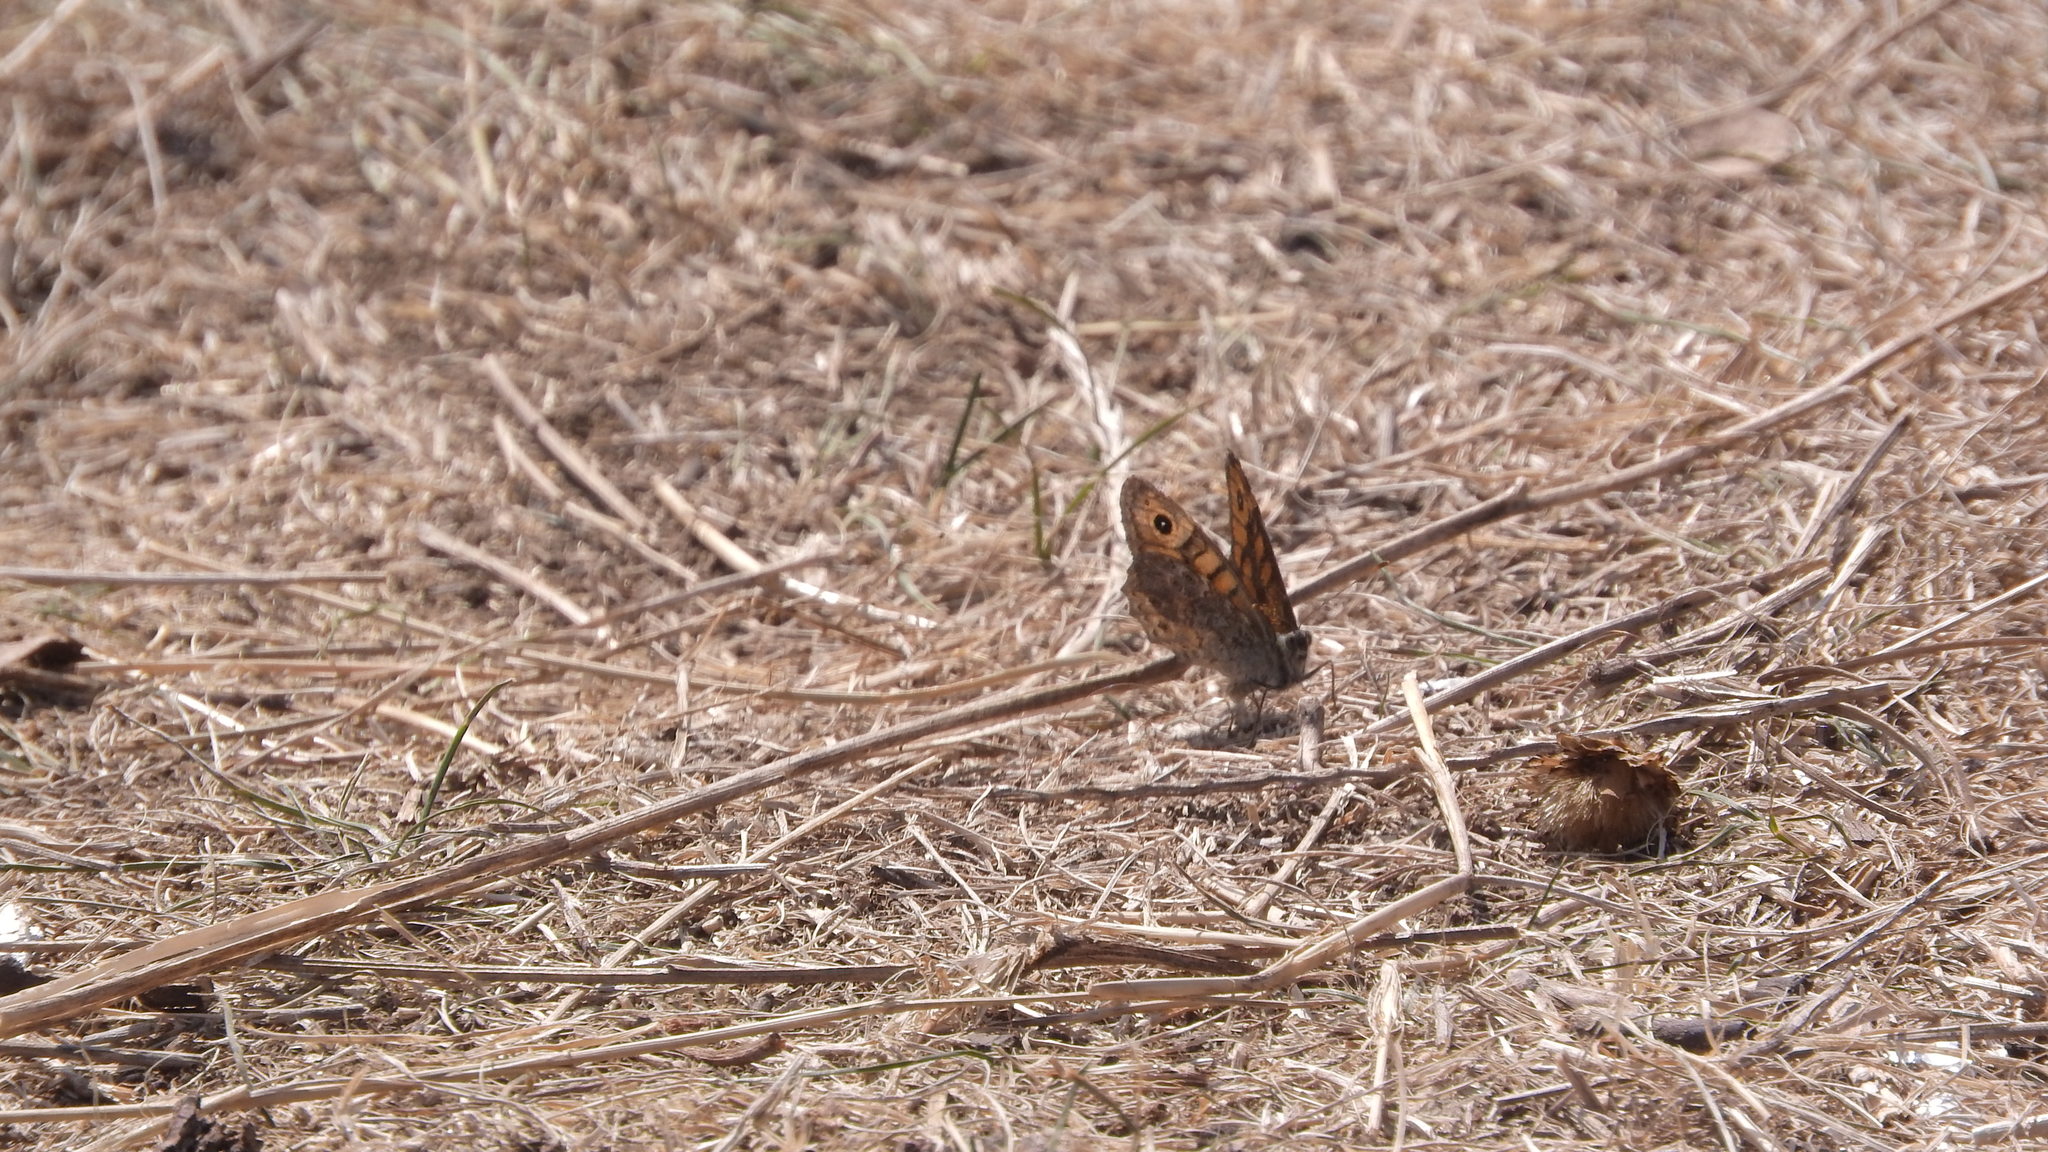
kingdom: Animalia
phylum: Arthropoda
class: Insecta
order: Lepidoptera
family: Nymphalidae
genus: Pararge
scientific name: Pararge Lasiommata megera
